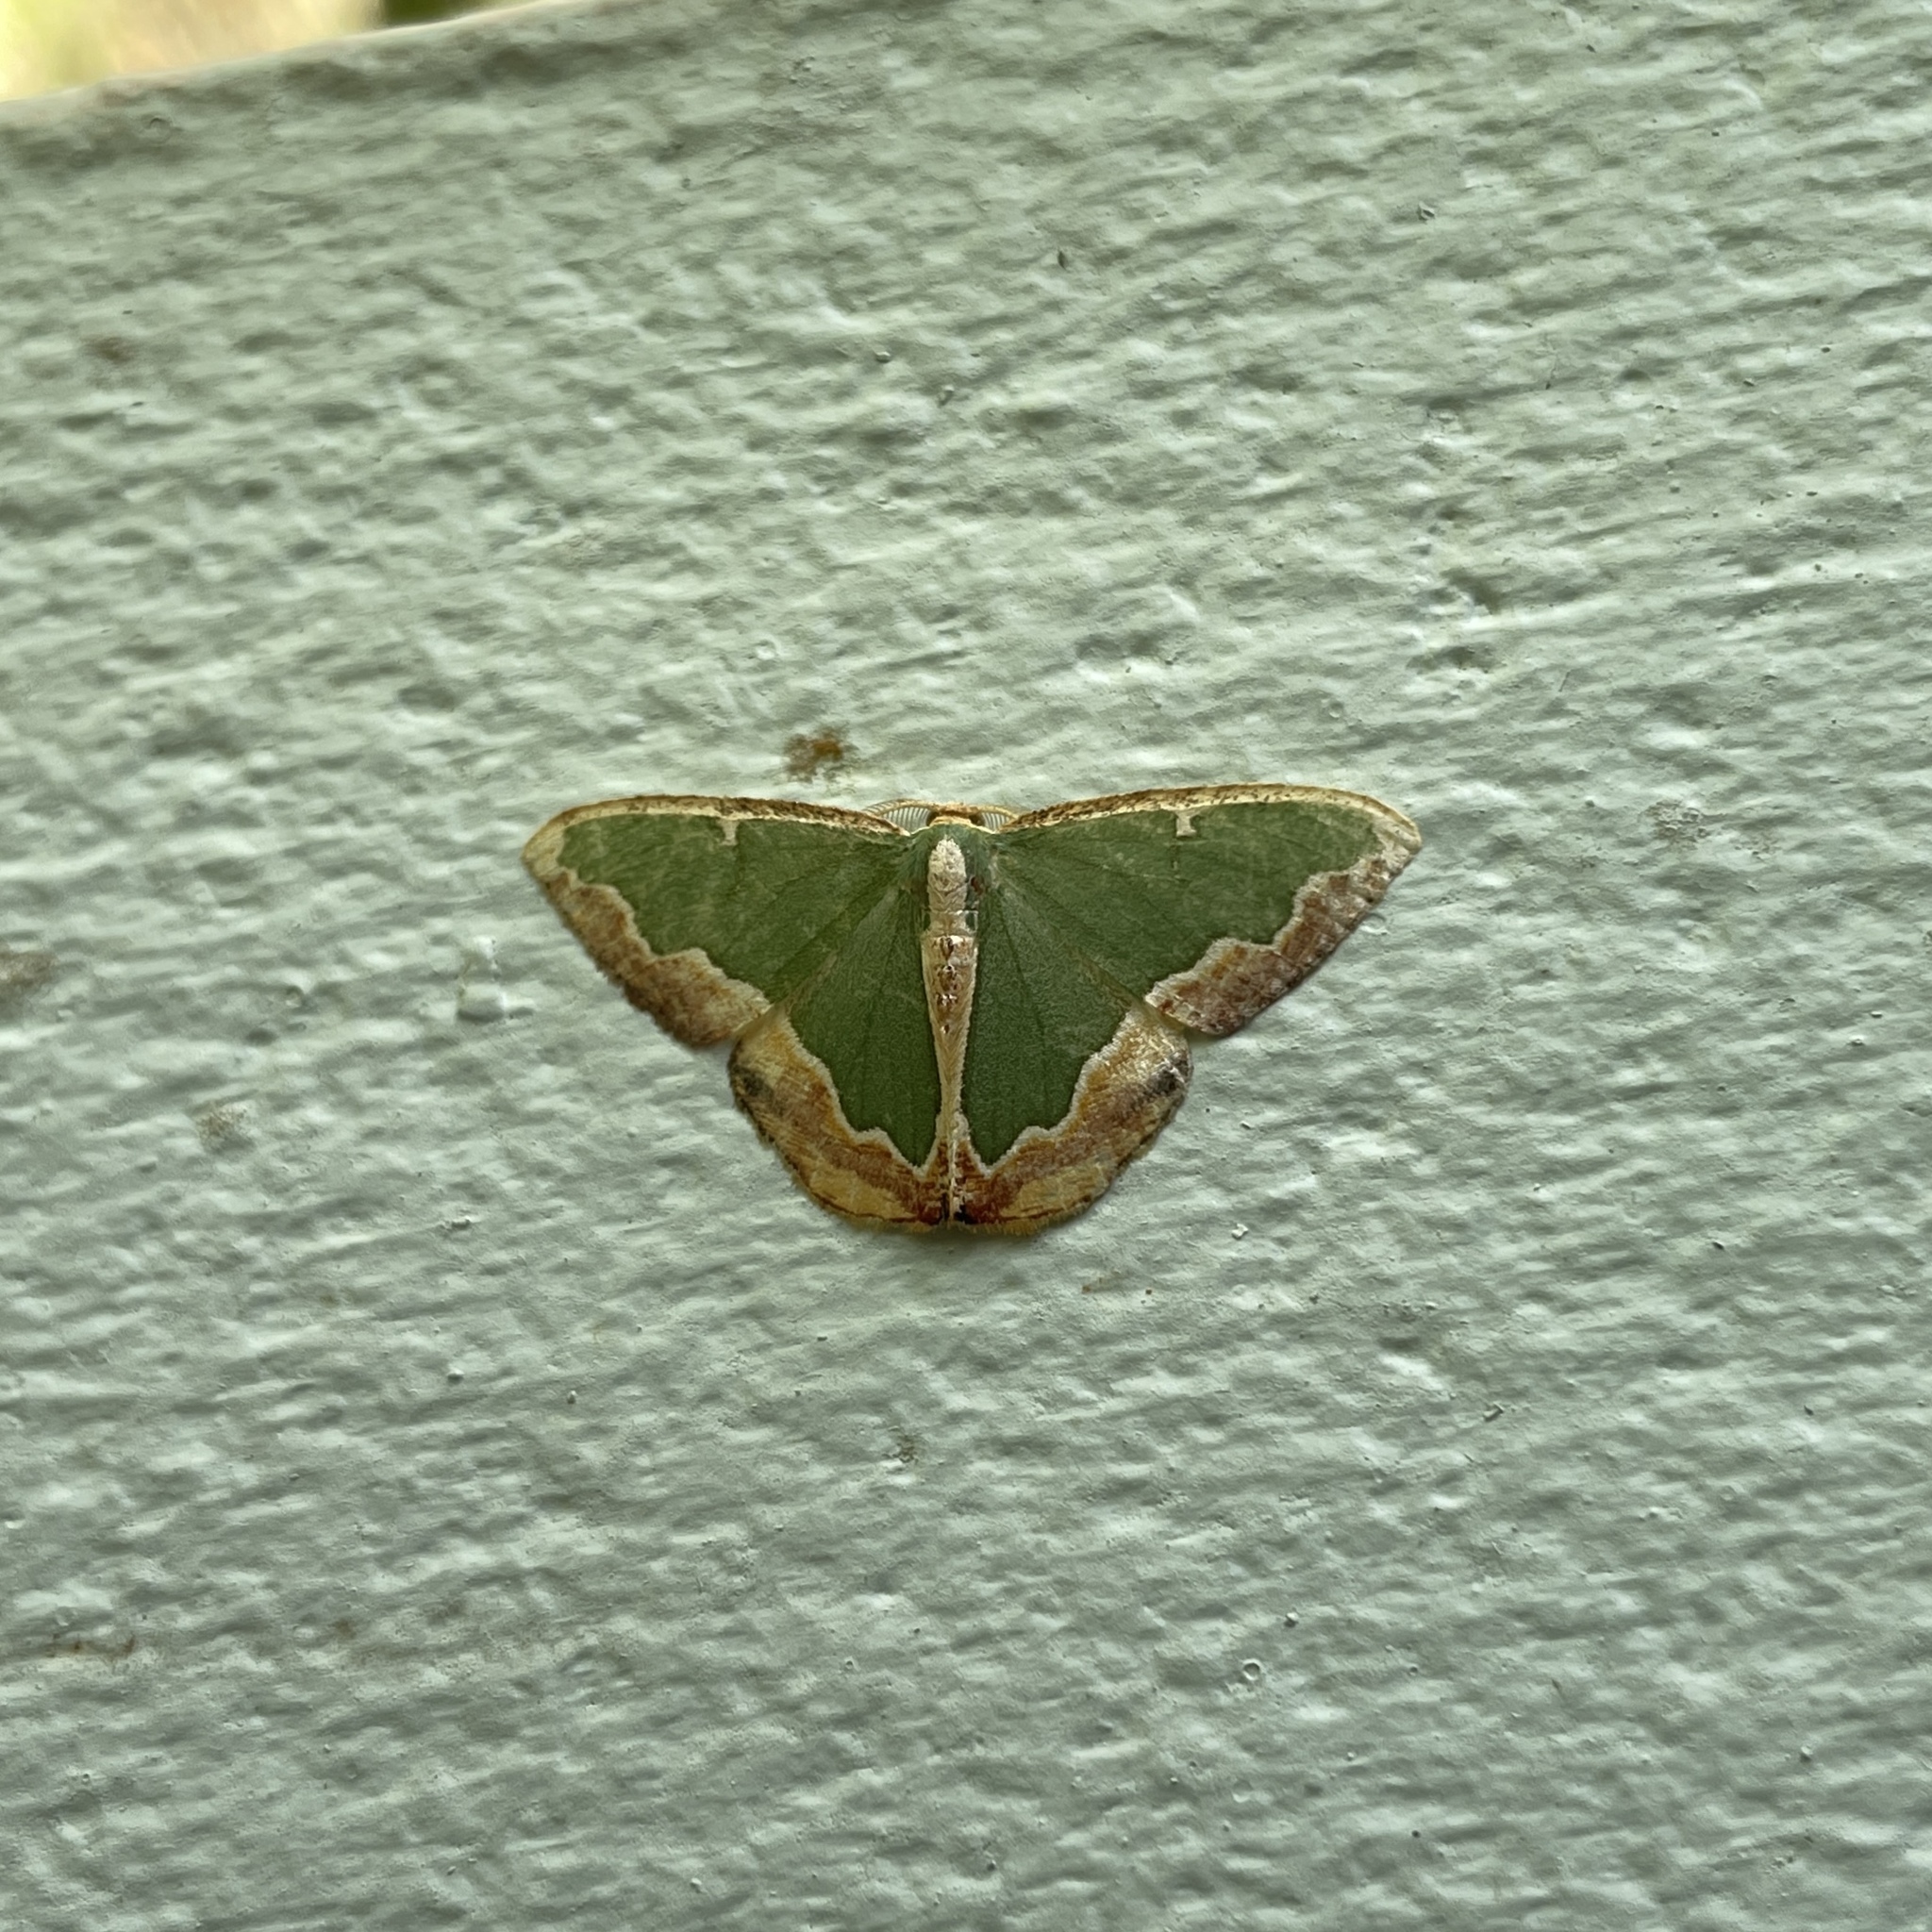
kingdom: Animalia
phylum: Arthropoda
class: Insecta
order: Lepidoptera
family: Geometridae
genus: Oospila
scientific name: Oospila venezuelata
